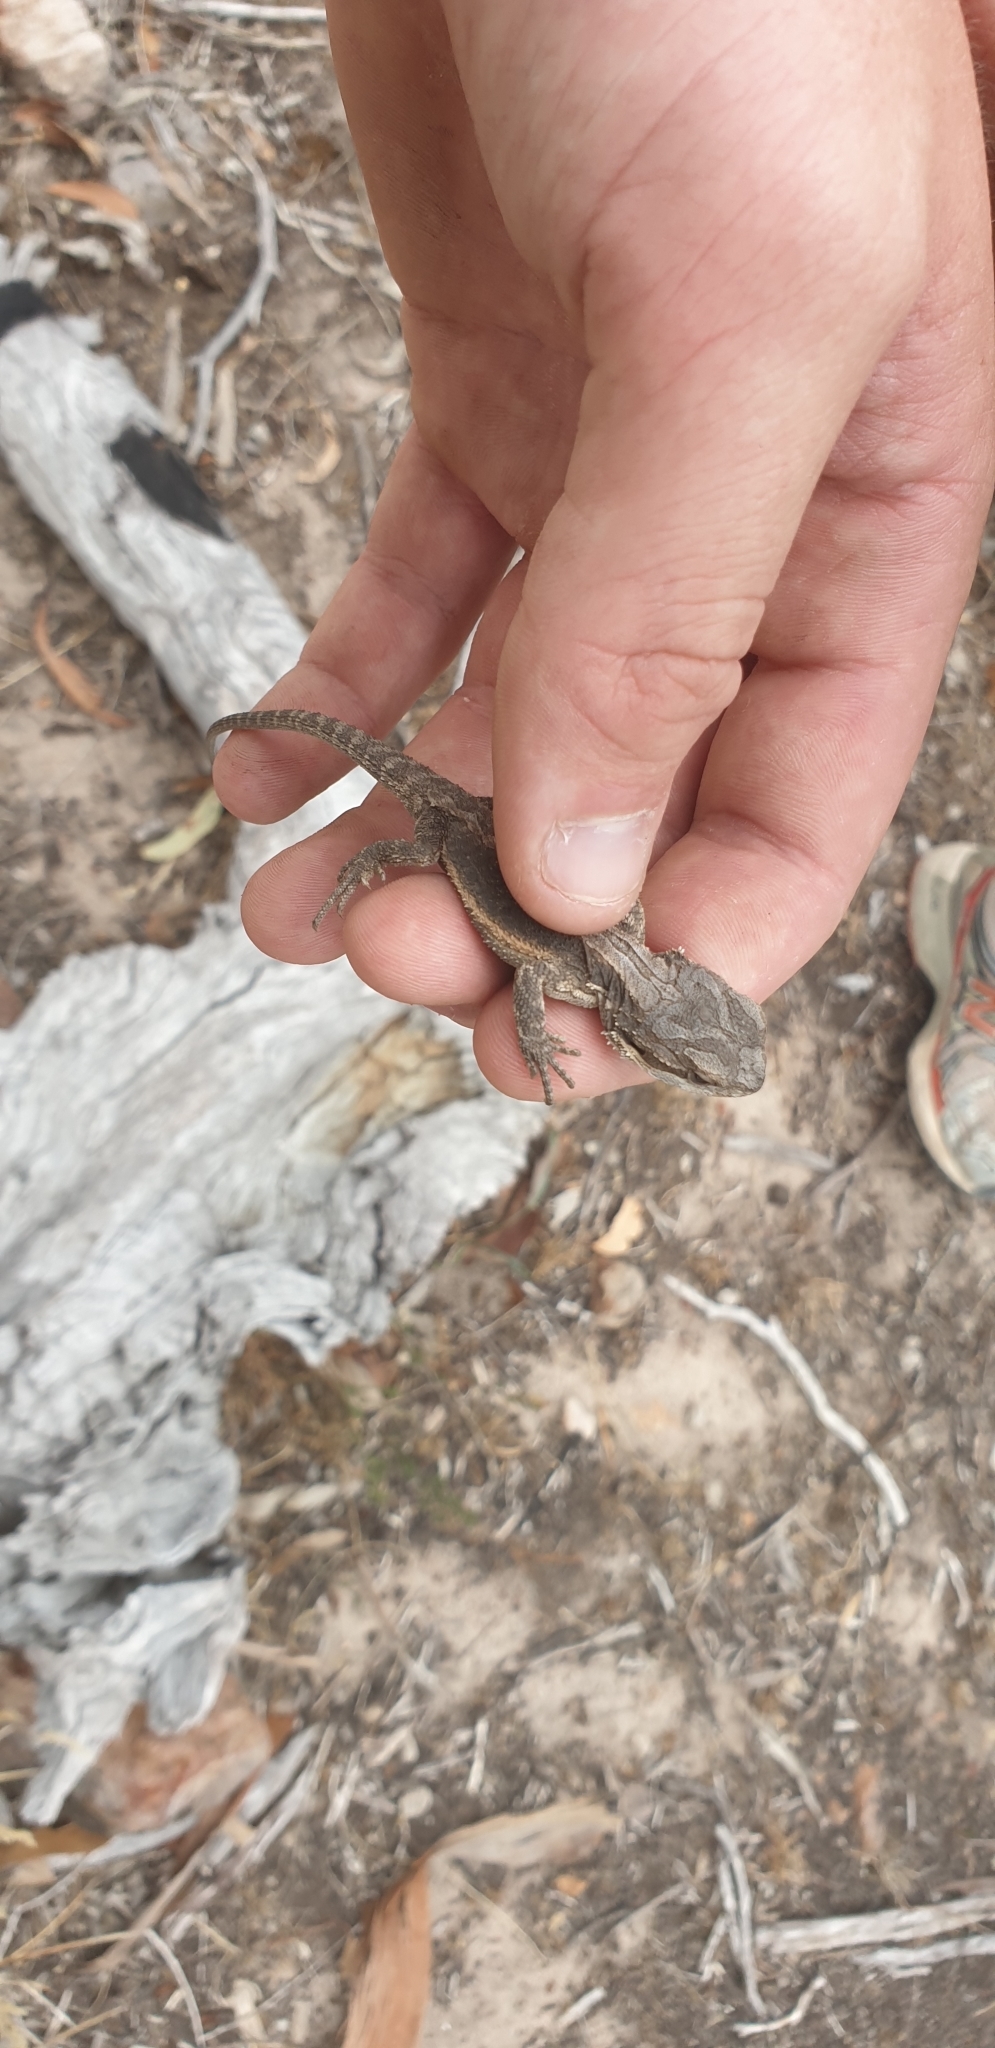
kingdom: Animalia
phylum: Chordata
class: Squamata
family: Agamidae
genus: Pogona
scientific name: Pogona barbata
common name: Bearded dragon
